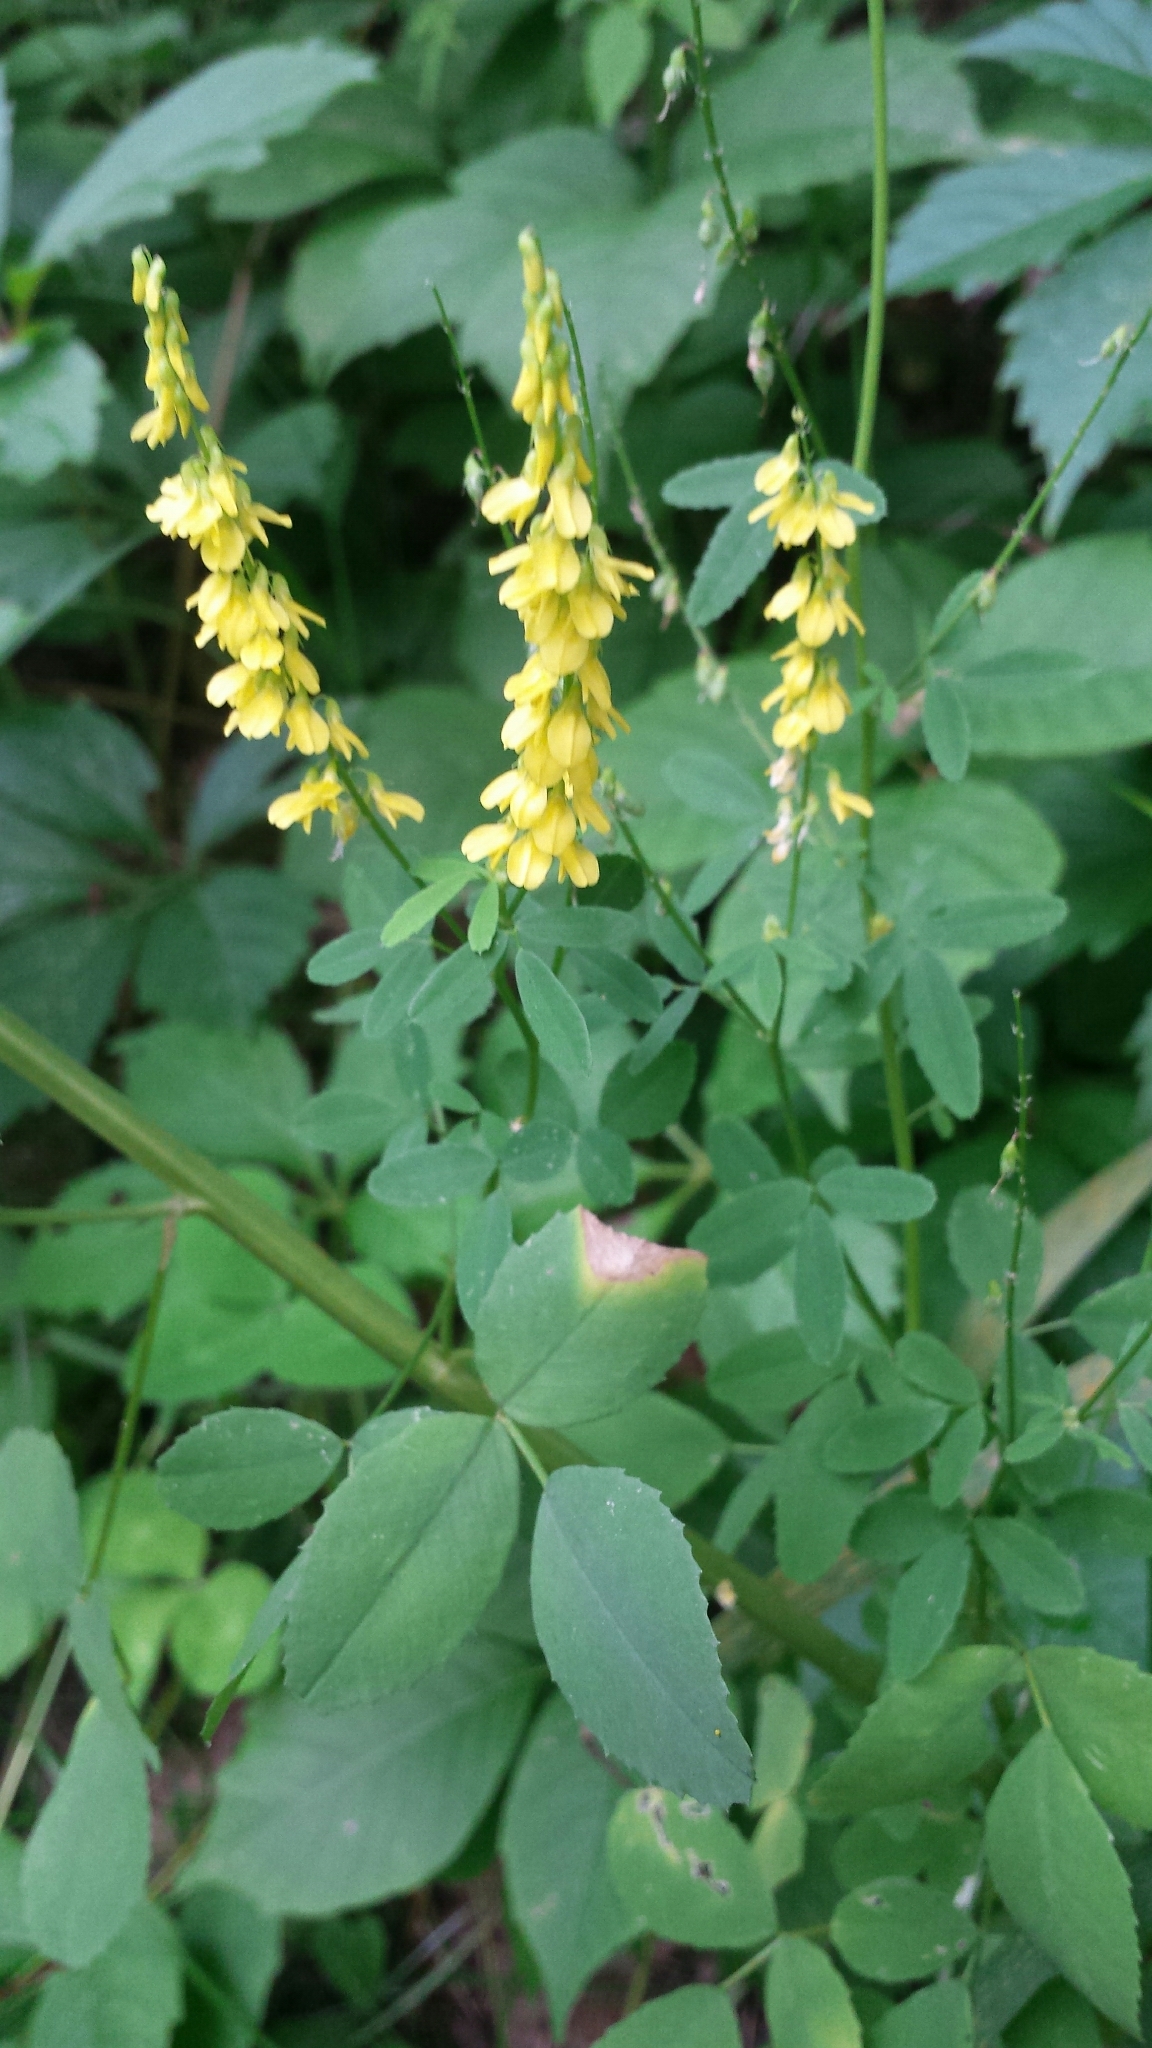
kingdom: Plantae
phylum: Tracheophyta
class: Magnoliopsida
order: Fabales
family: Fabaceae
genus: Melilotus
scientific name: Melilotus officinalis
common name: Sweetclover
